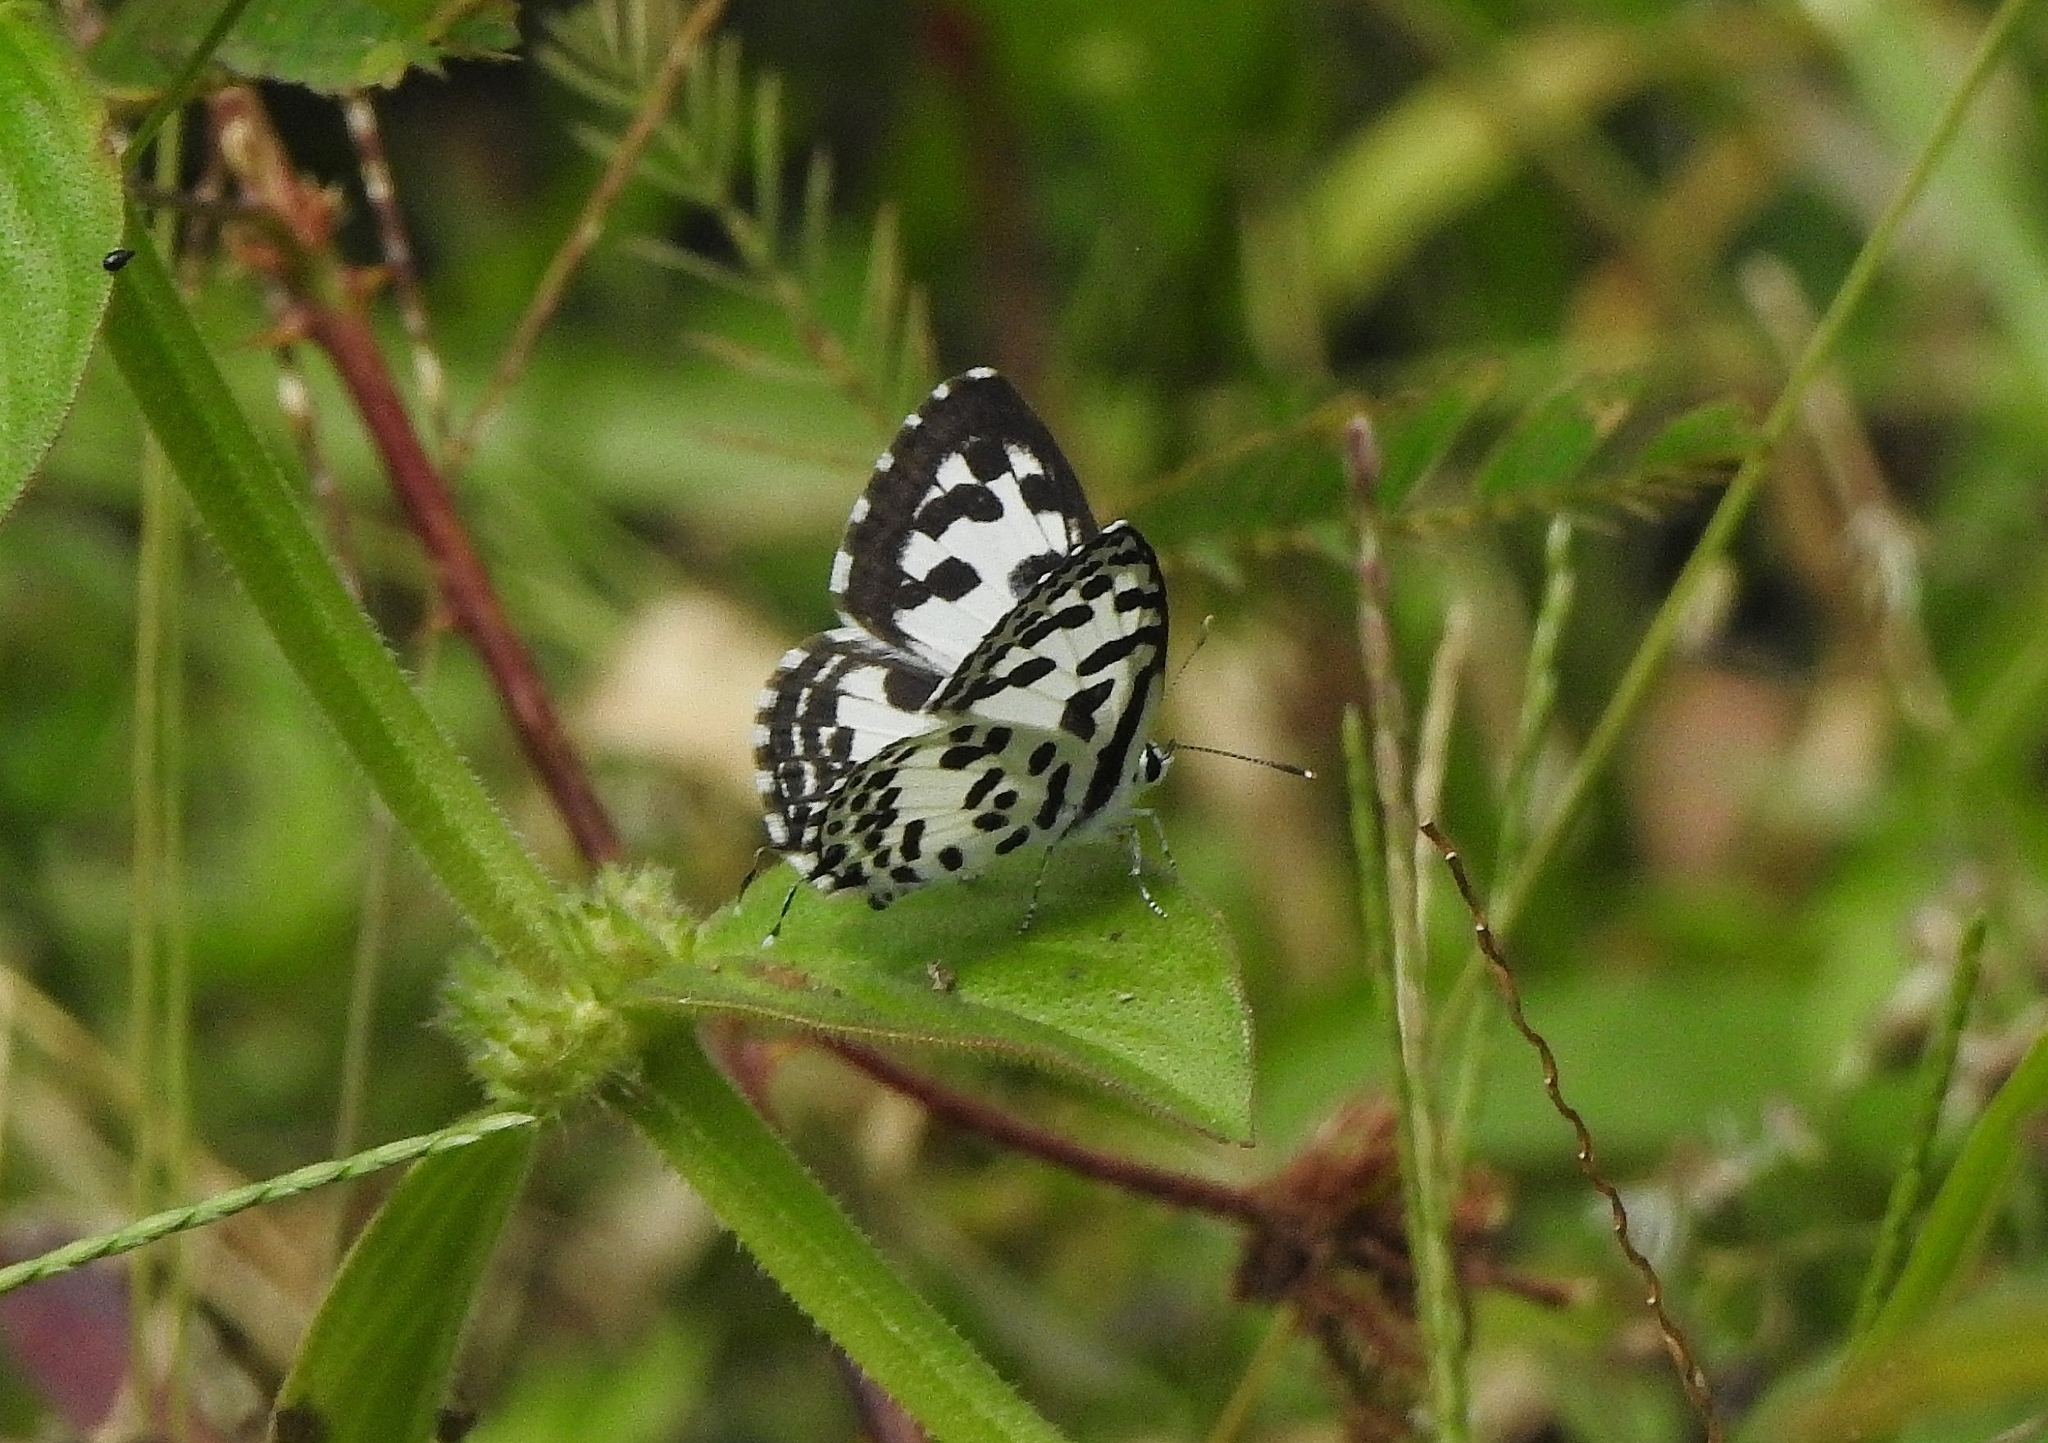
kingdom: Animalia
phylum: Arthropoda
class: Insecta
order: Lepidoptera
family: Lycaenidae
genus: Castalius
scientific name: Castalius rosimon
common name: Common pierrot
